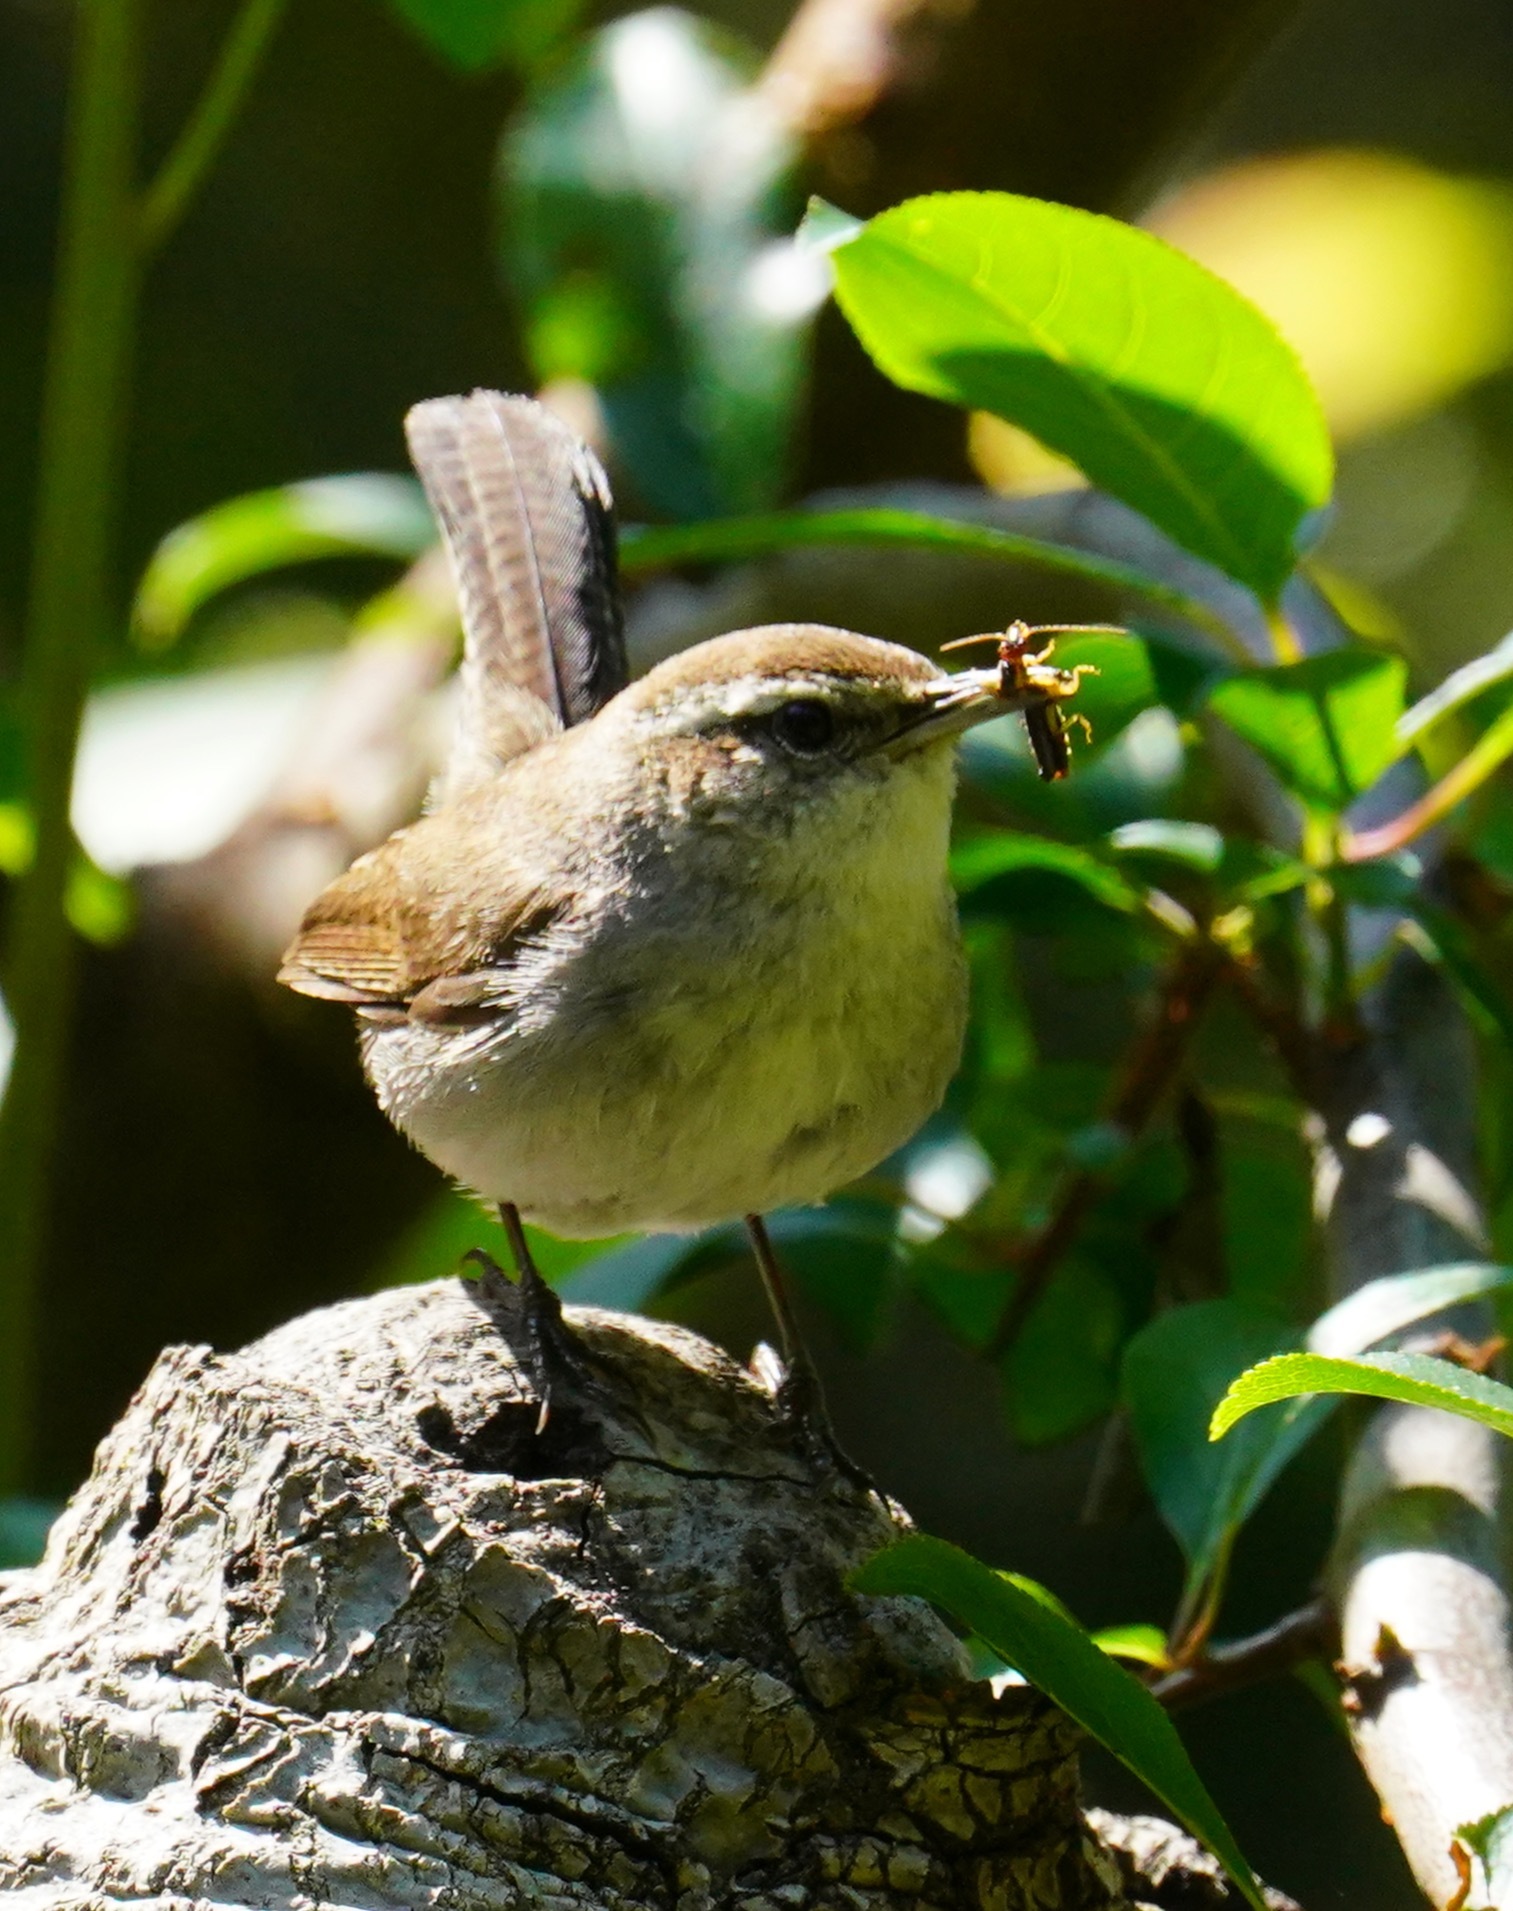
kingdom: Animalia
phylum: Chordata
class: Aves
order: Passeriformes
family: Troglodytidae
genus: Thryomanes
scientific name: Thryomanes bewickii
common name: Bewick's wren
